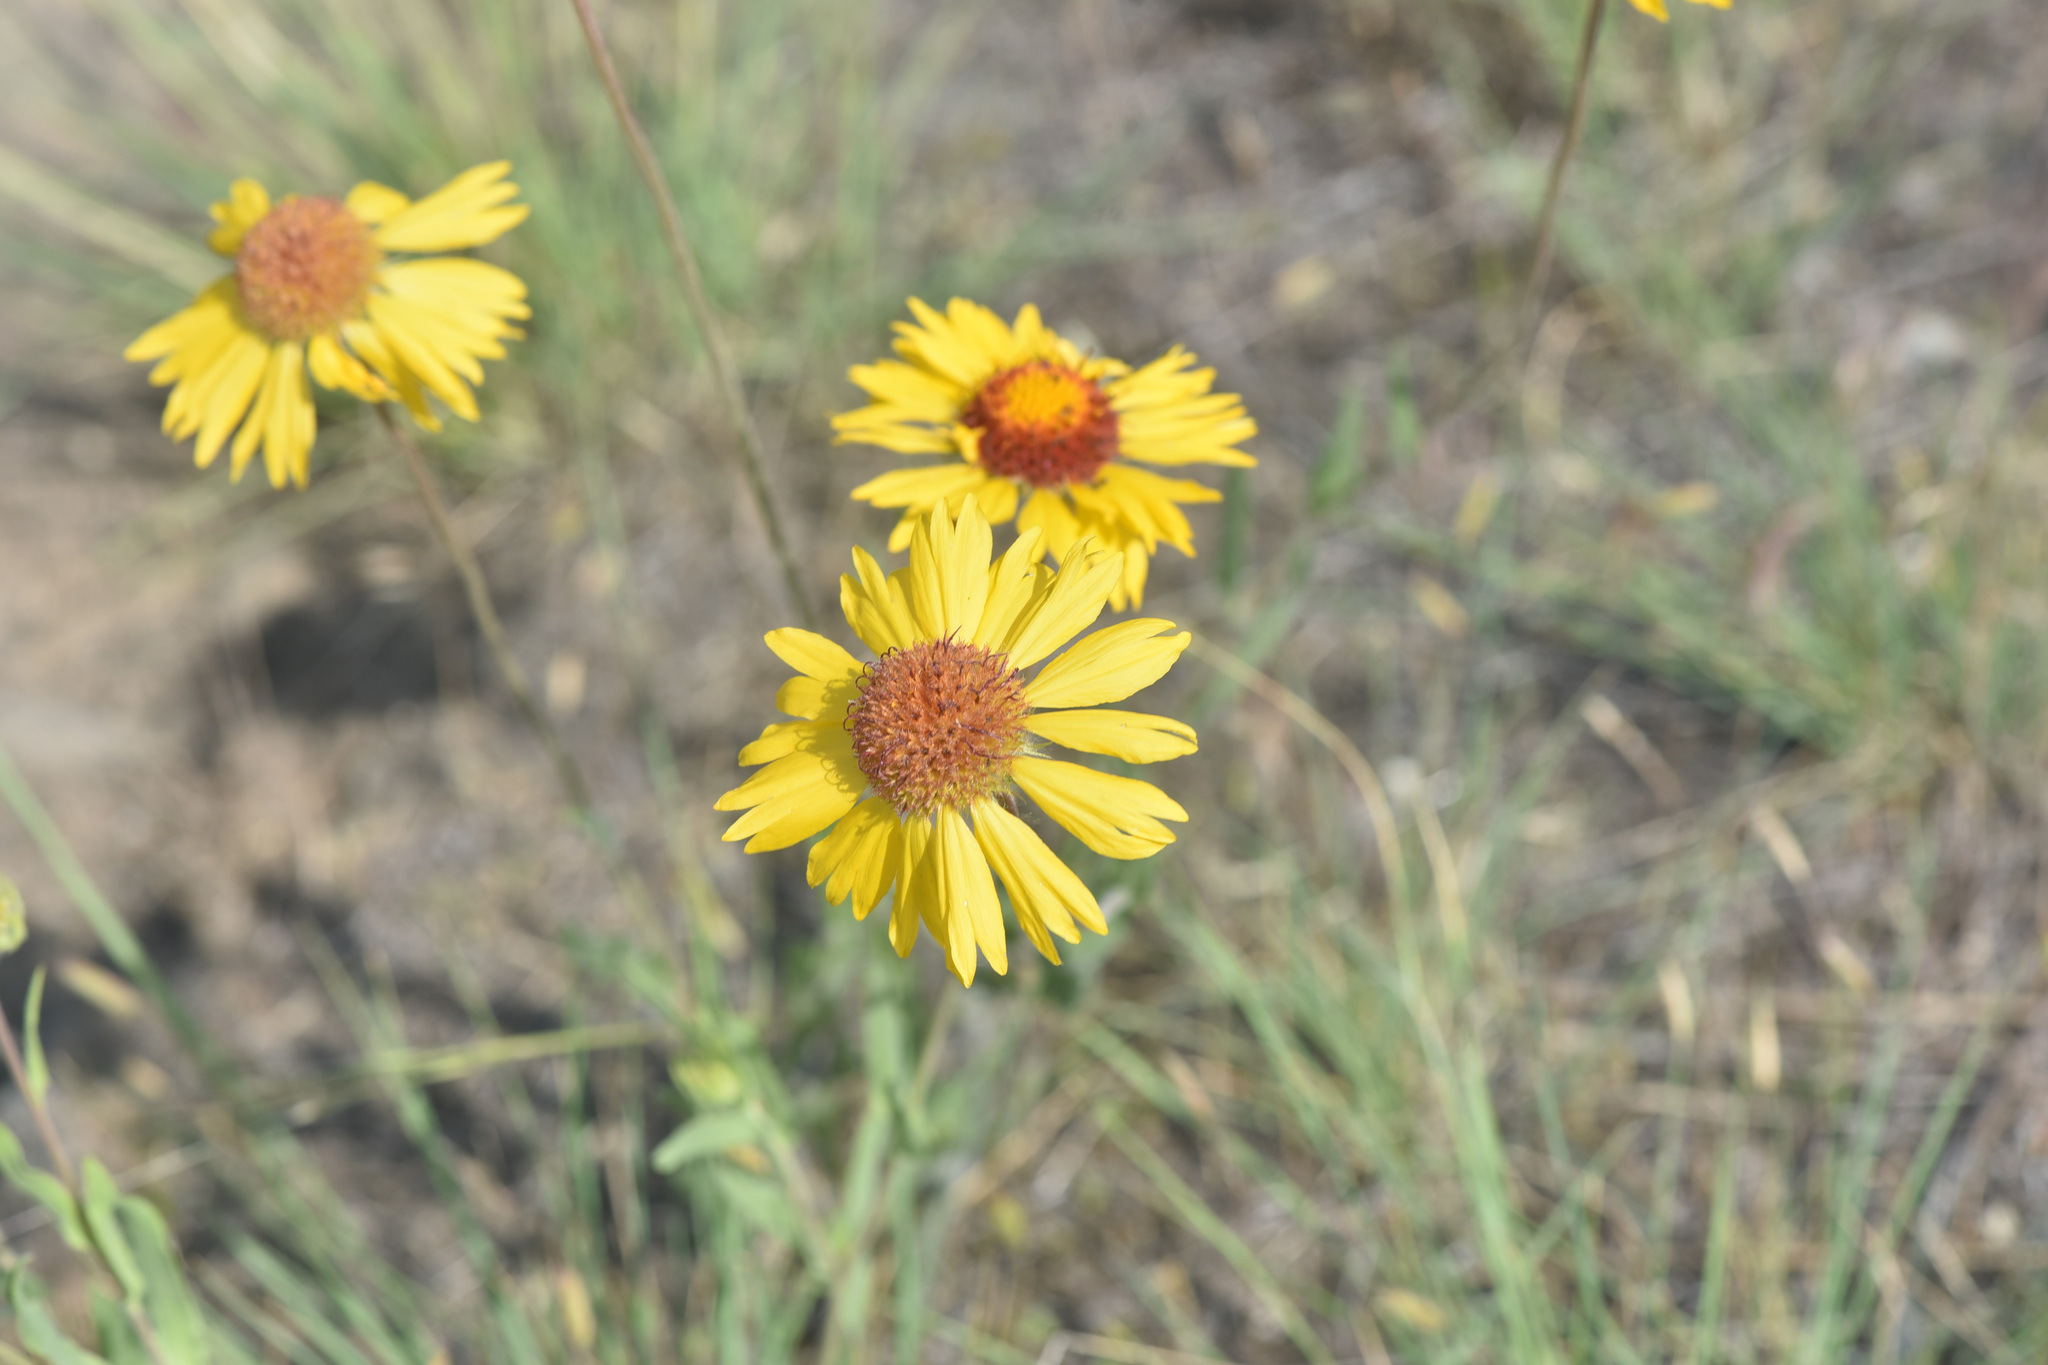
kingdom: Plantae
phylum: Tracheophyta
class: Magnoliopsida
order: Asterales
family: Asteraceae
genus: Gaillardia
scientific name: Gaillardia aristata
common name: Blanket-flower
